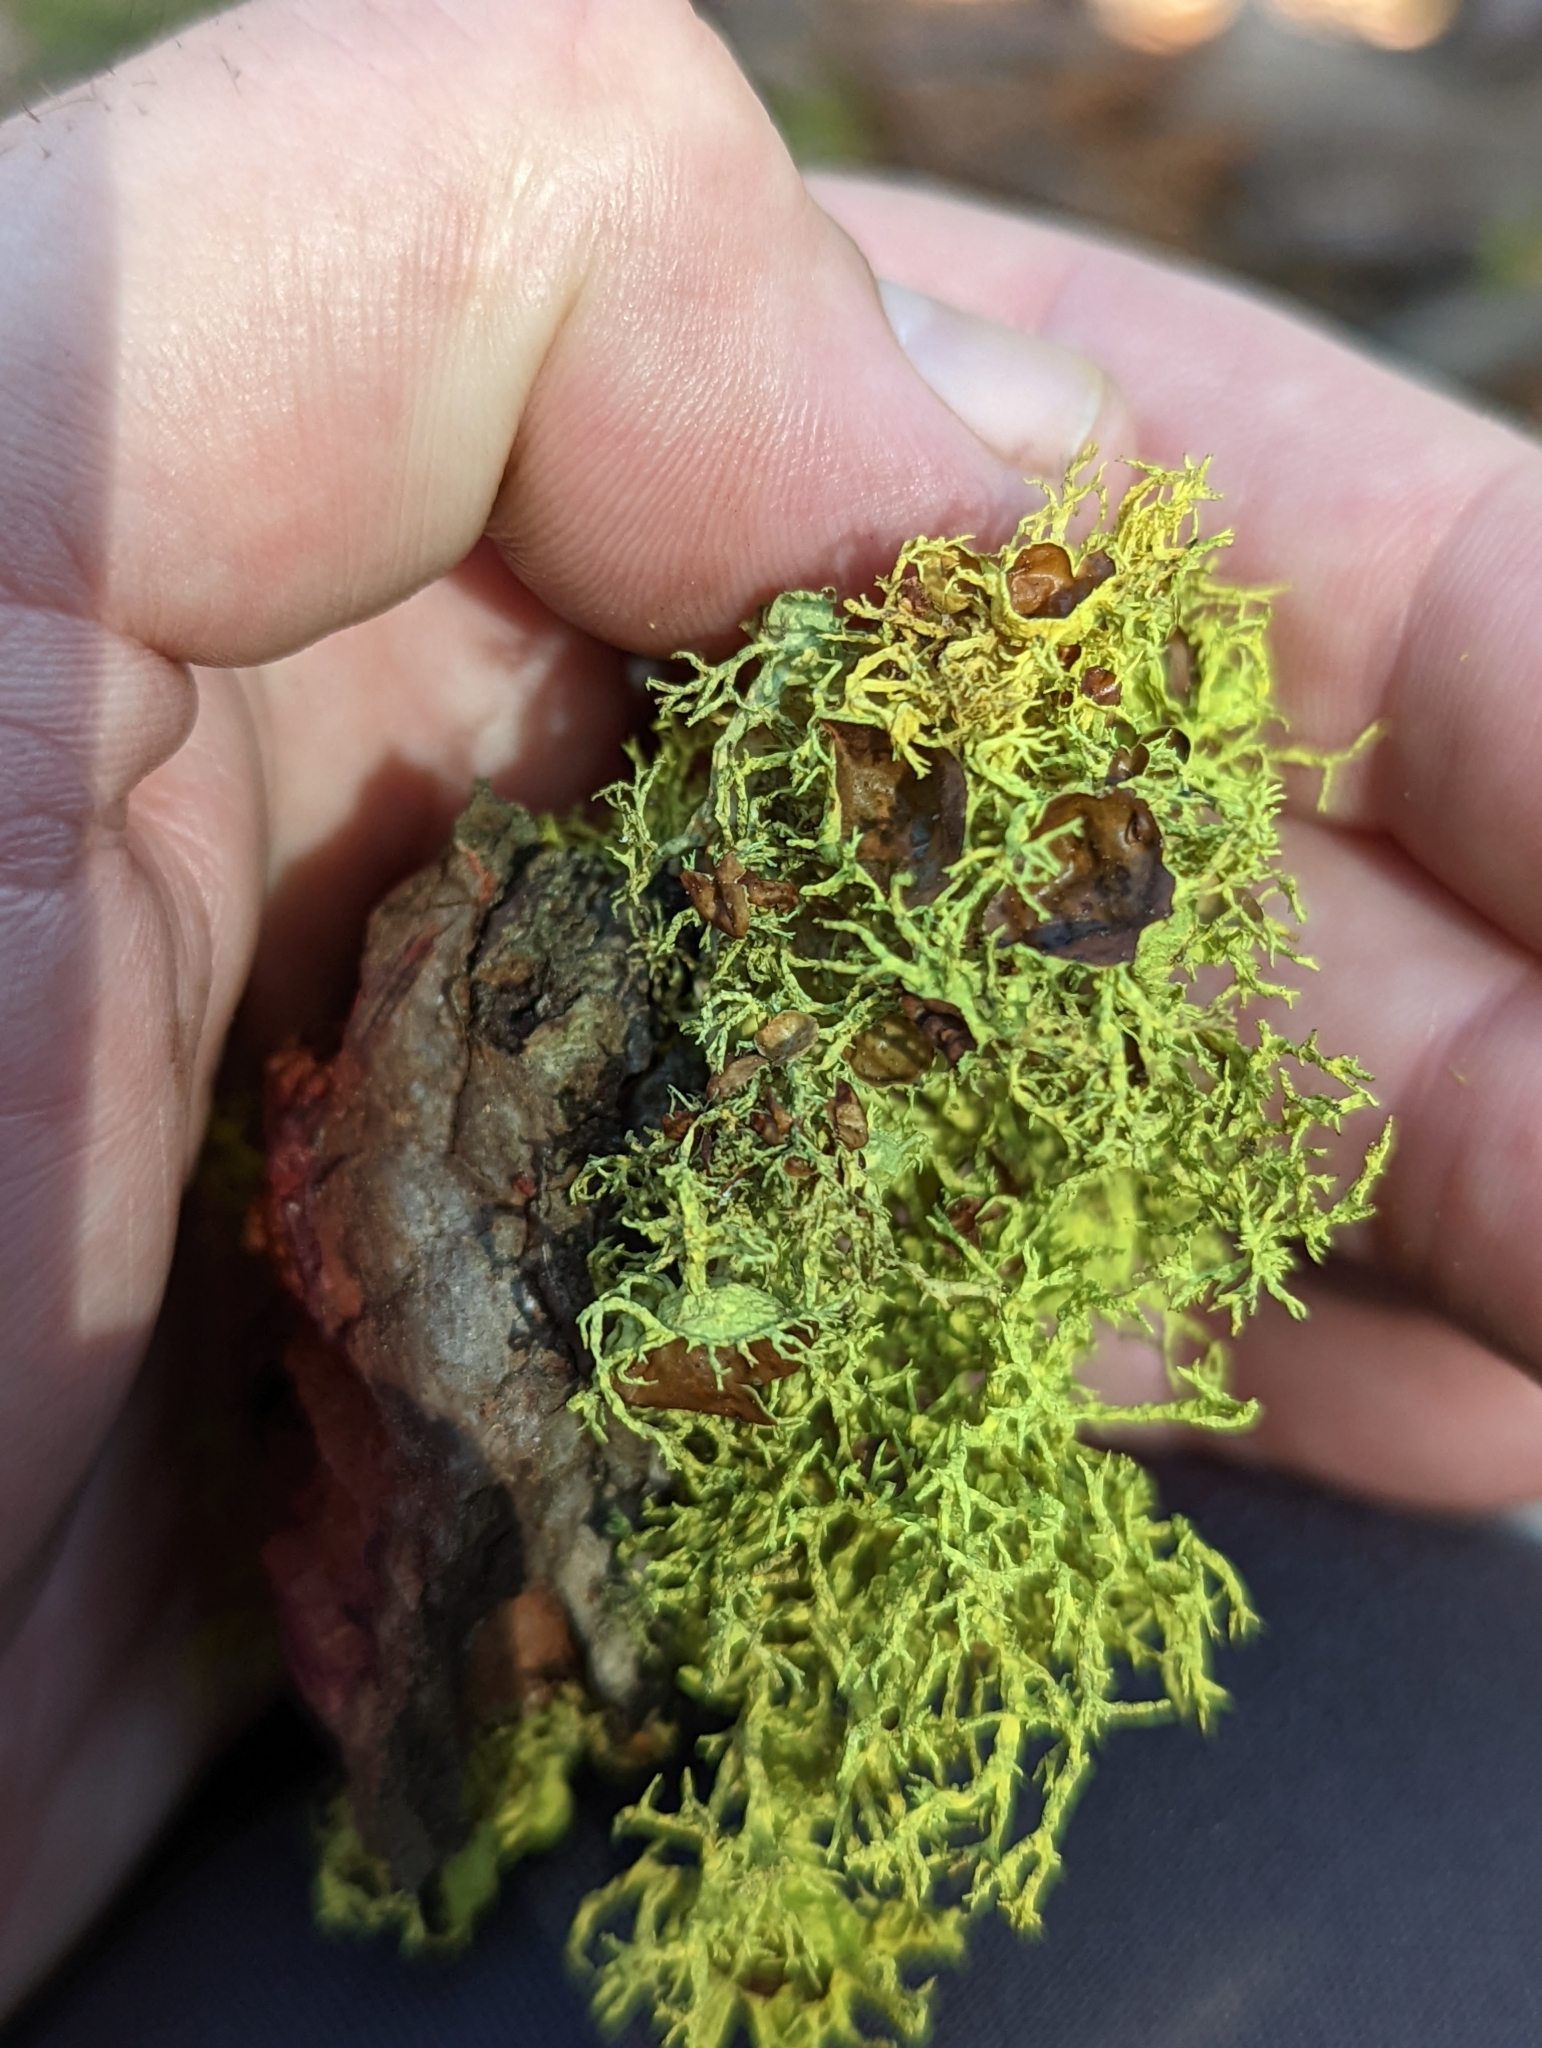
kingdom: Fungi
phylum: Ascomycota
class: Lecanoromycetes
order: Lecanorales
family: Parmeliaceae
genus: Letharia
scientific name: Letharia columbiana
